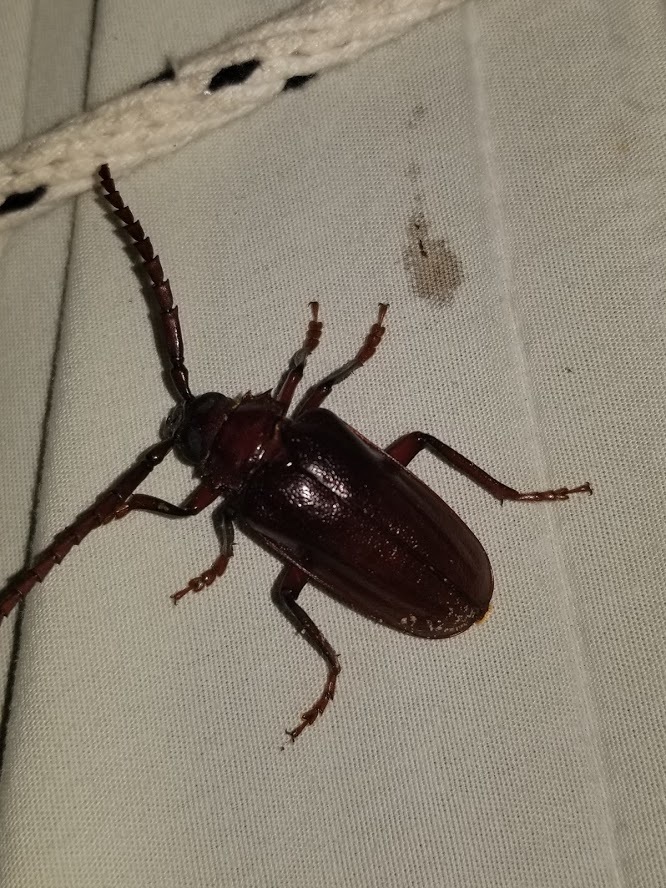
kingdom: Animalia
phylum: Arthropoda
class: Insecta
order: Coleoptera
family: Cerambycidae
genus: Prionus
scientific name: Prionus pocularis
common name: Tooth-necked longhorn beetle
